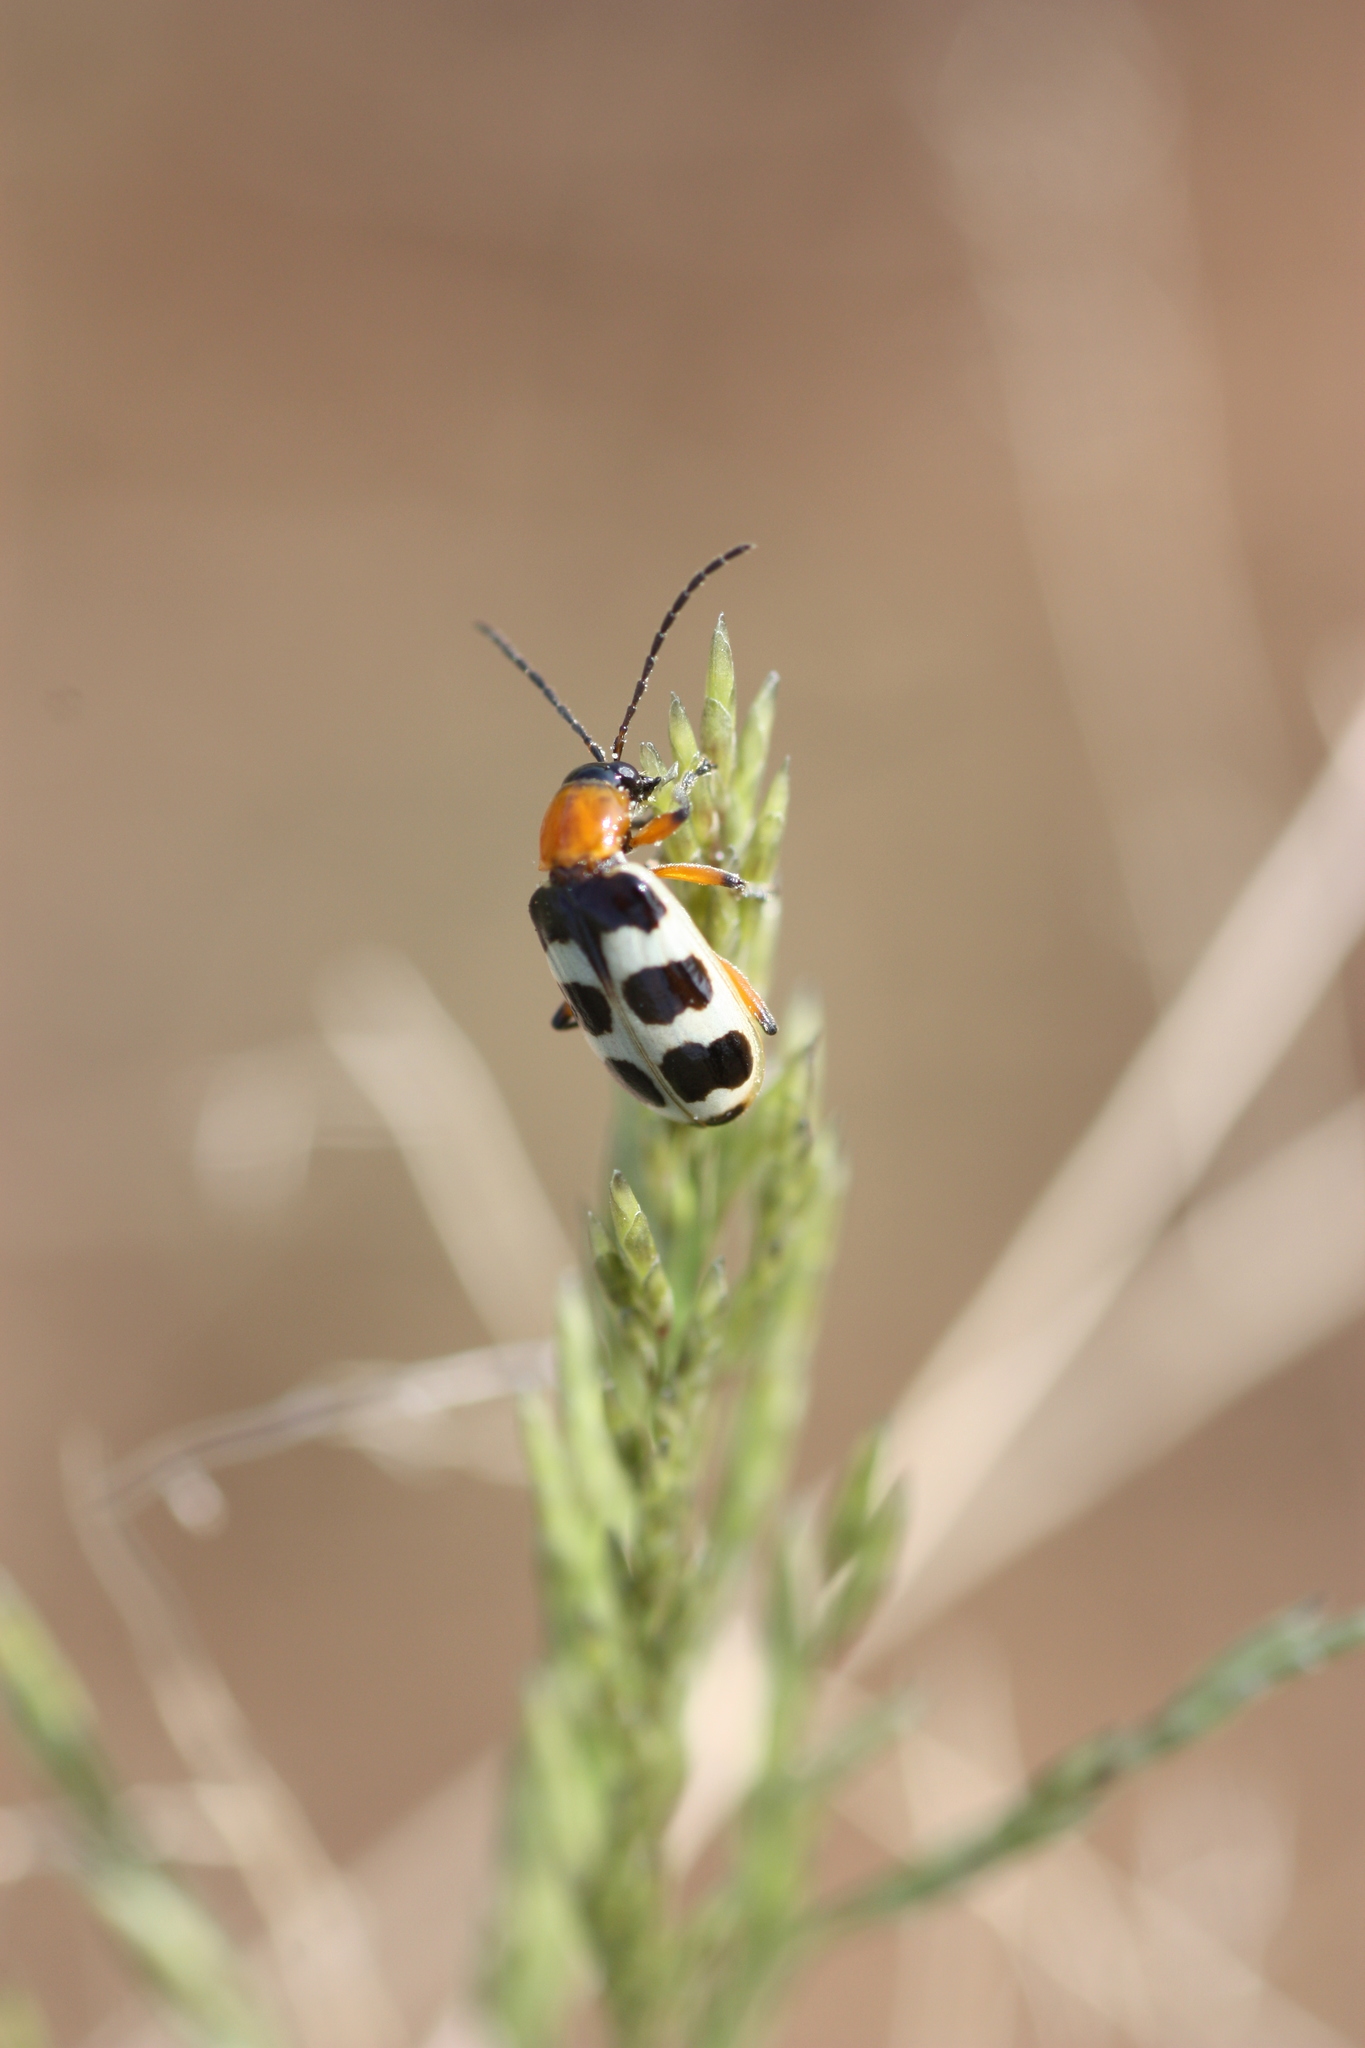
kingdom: Animalia
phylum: Arthropoda
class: Insecta
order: Coleoptera
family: Chrysomelidae
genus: Paranapiacaba
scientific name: Paranapiacaba tricincta
